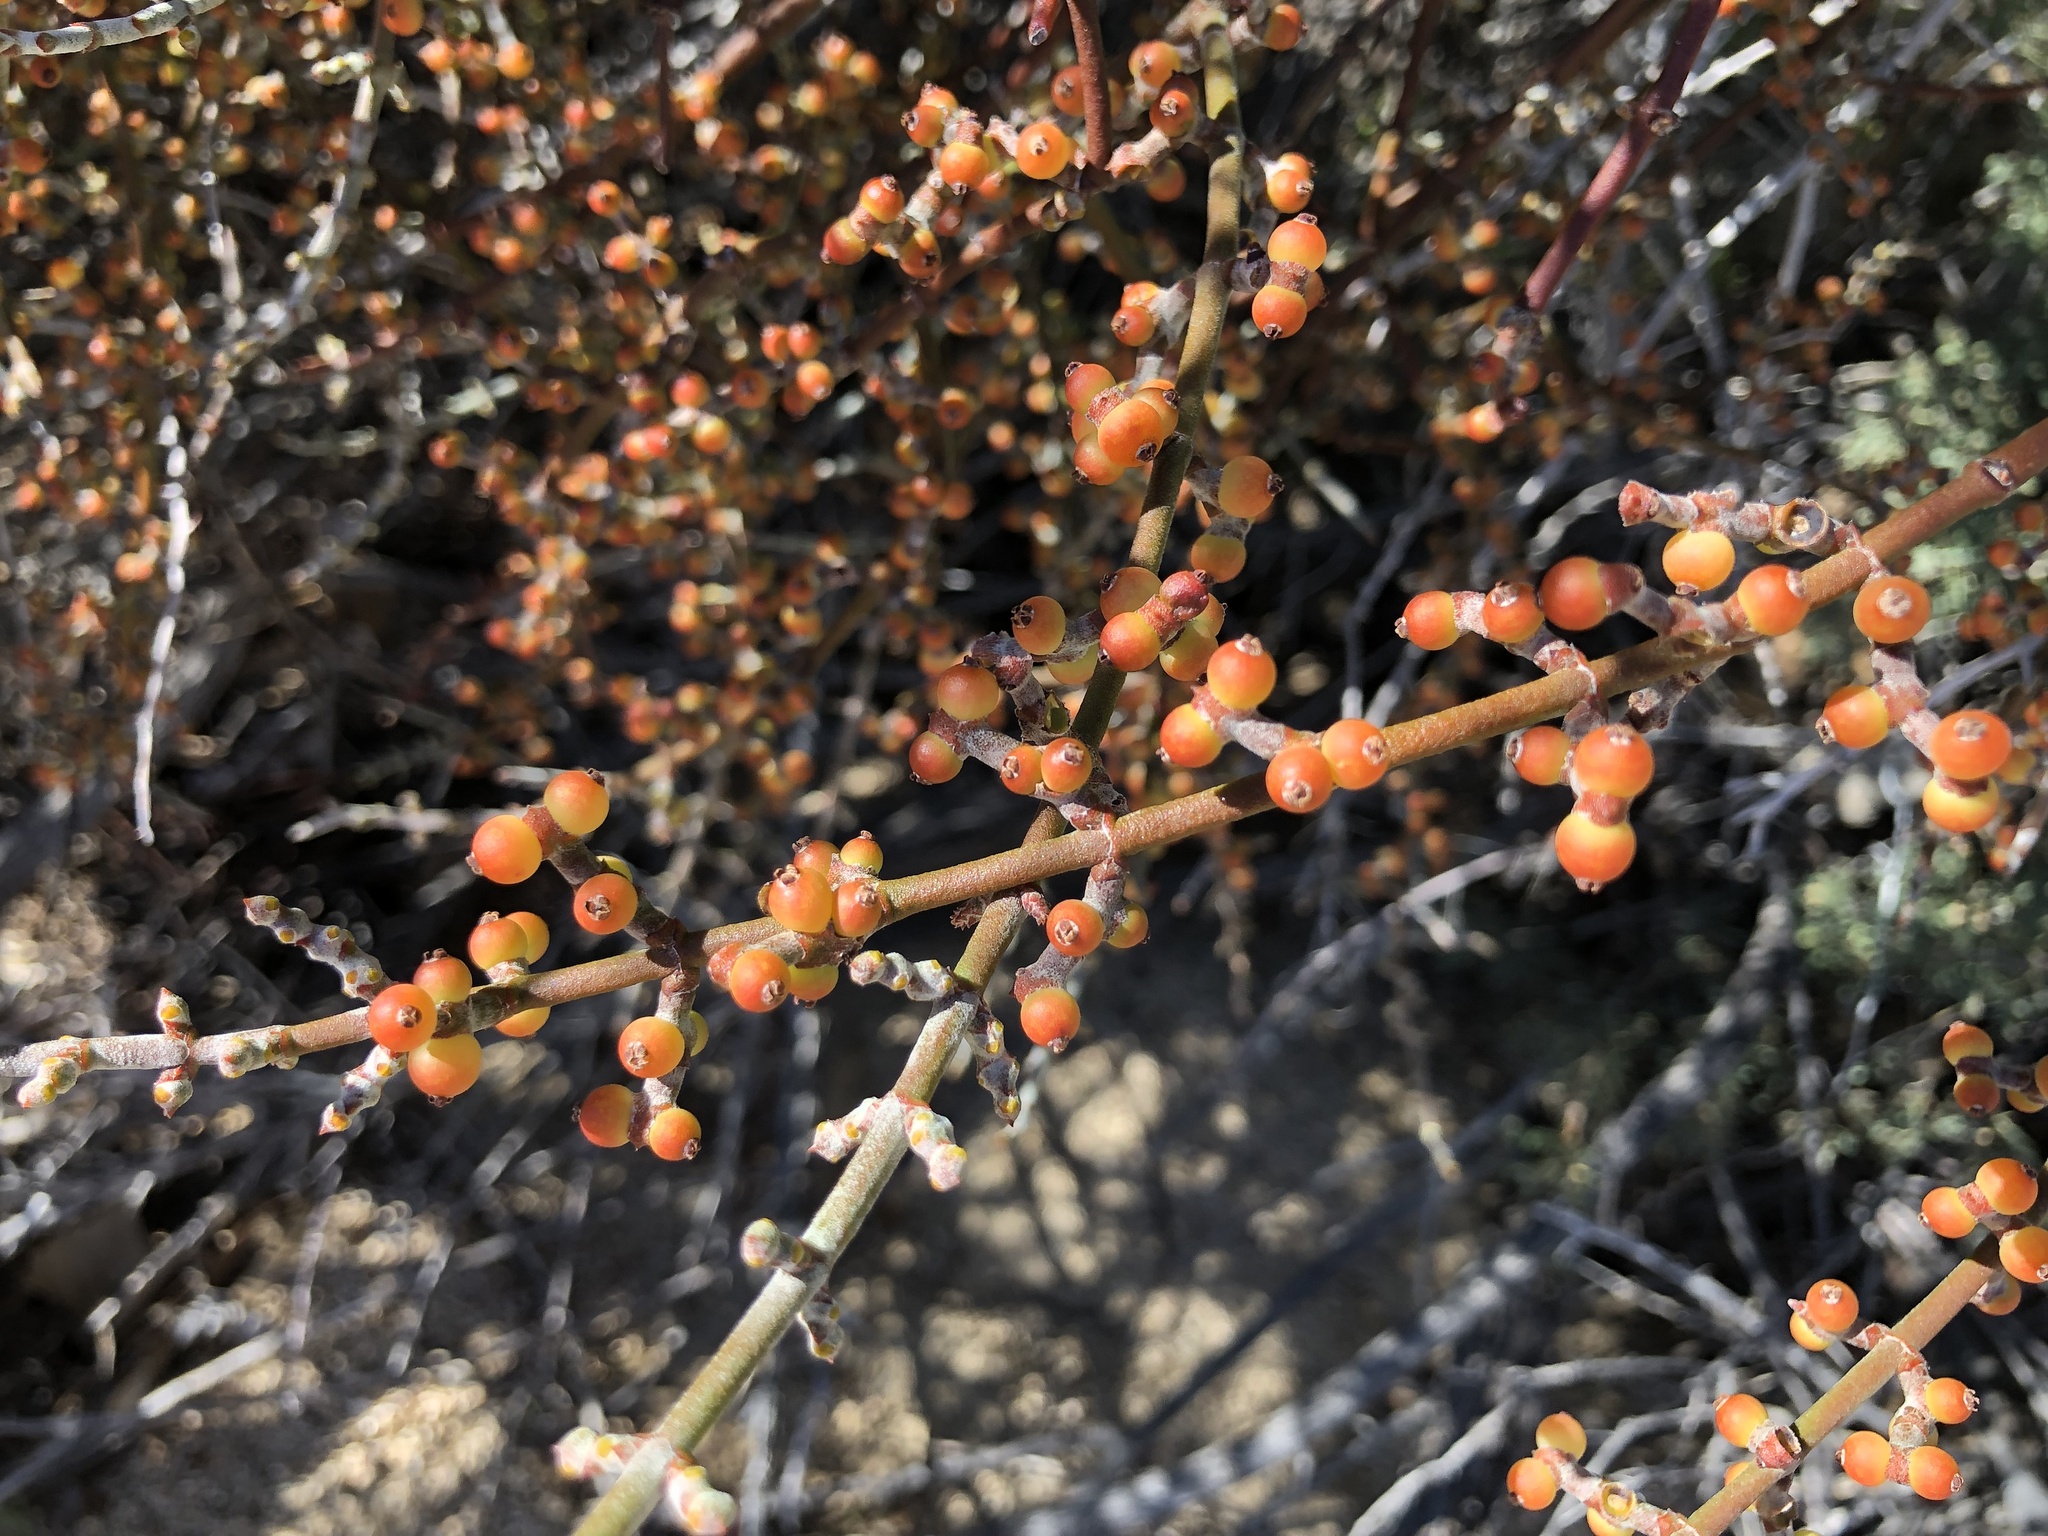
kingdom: Plantae
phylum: Tracheophyta
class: Magnoliopsida
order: Santalales
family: Viscaceae
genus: Phoradendron
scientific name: Phoradendron californicum
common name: Acacia mistletoe
